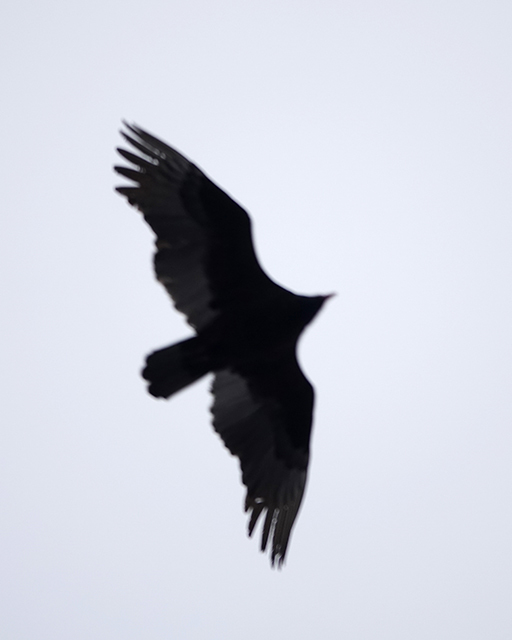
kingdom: Animalia
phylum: Chordata
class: Aves
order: Accipitriformes
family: Cathartidae
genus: Cathartes
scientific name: Cathartes aura
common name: Turkey vulture
